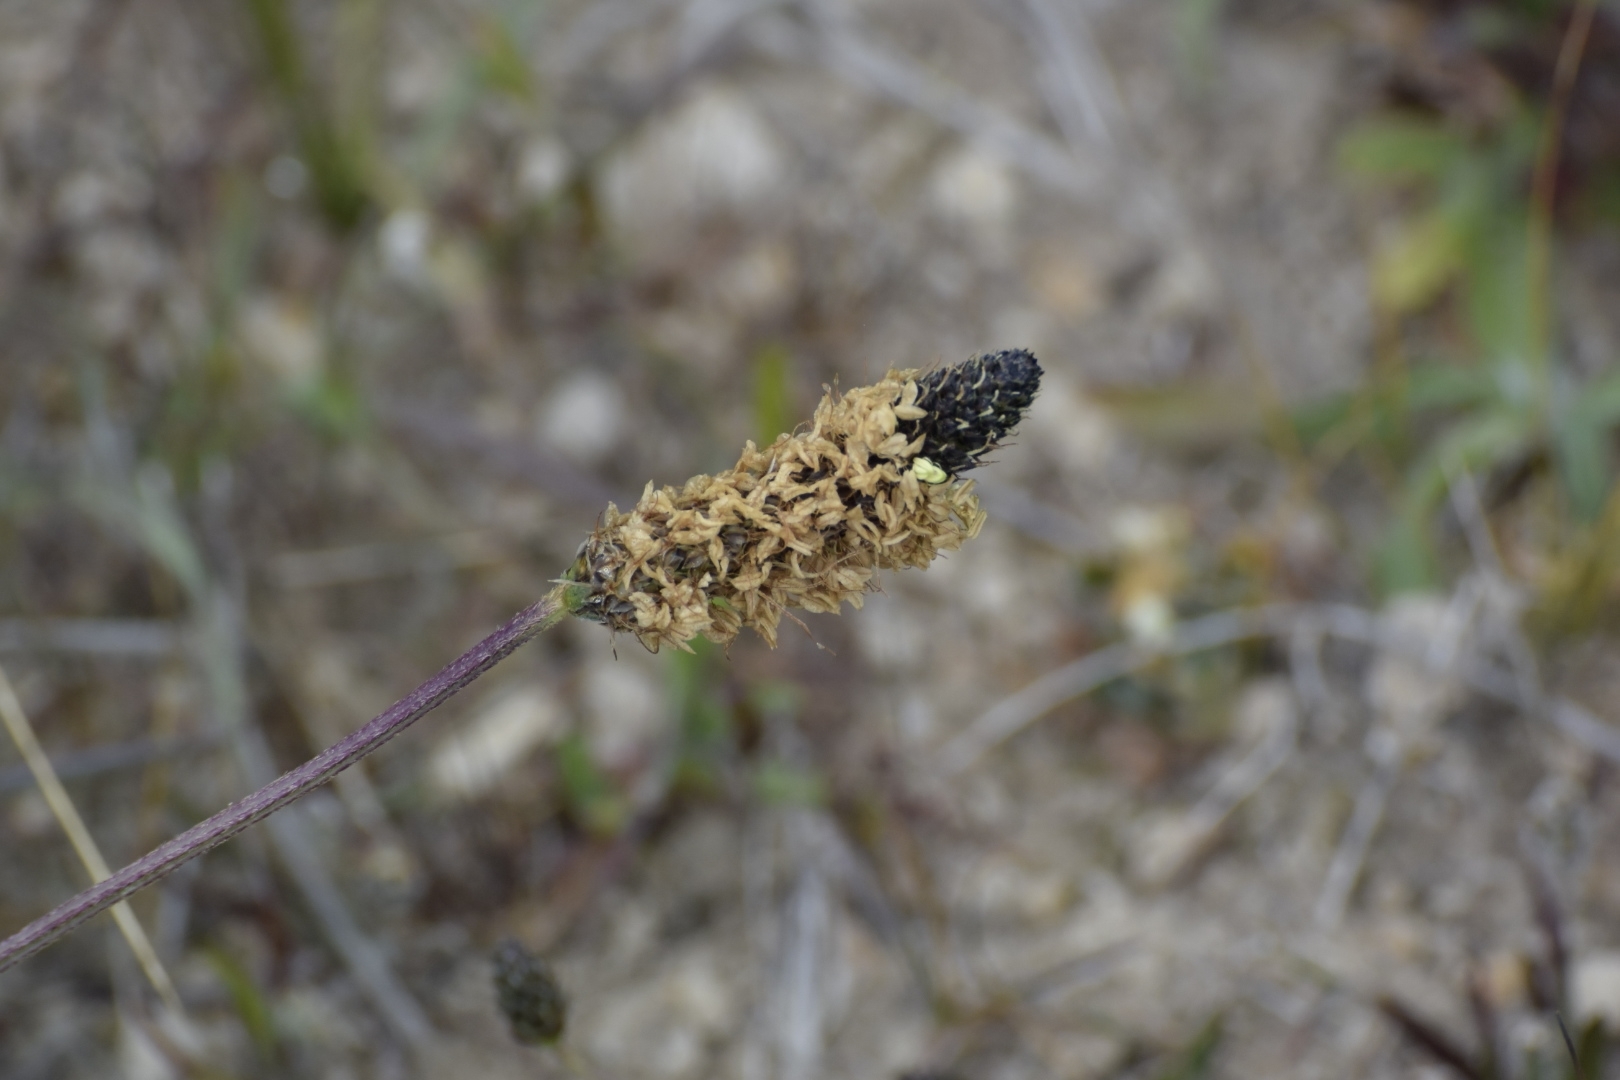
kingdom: Plantae
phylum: Tracheophyta
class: Magnoliopsida
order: Lamiales
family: Plantaginaceae
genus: Plantago
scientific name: Plantago lanceolata
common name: Ribwort plantain
